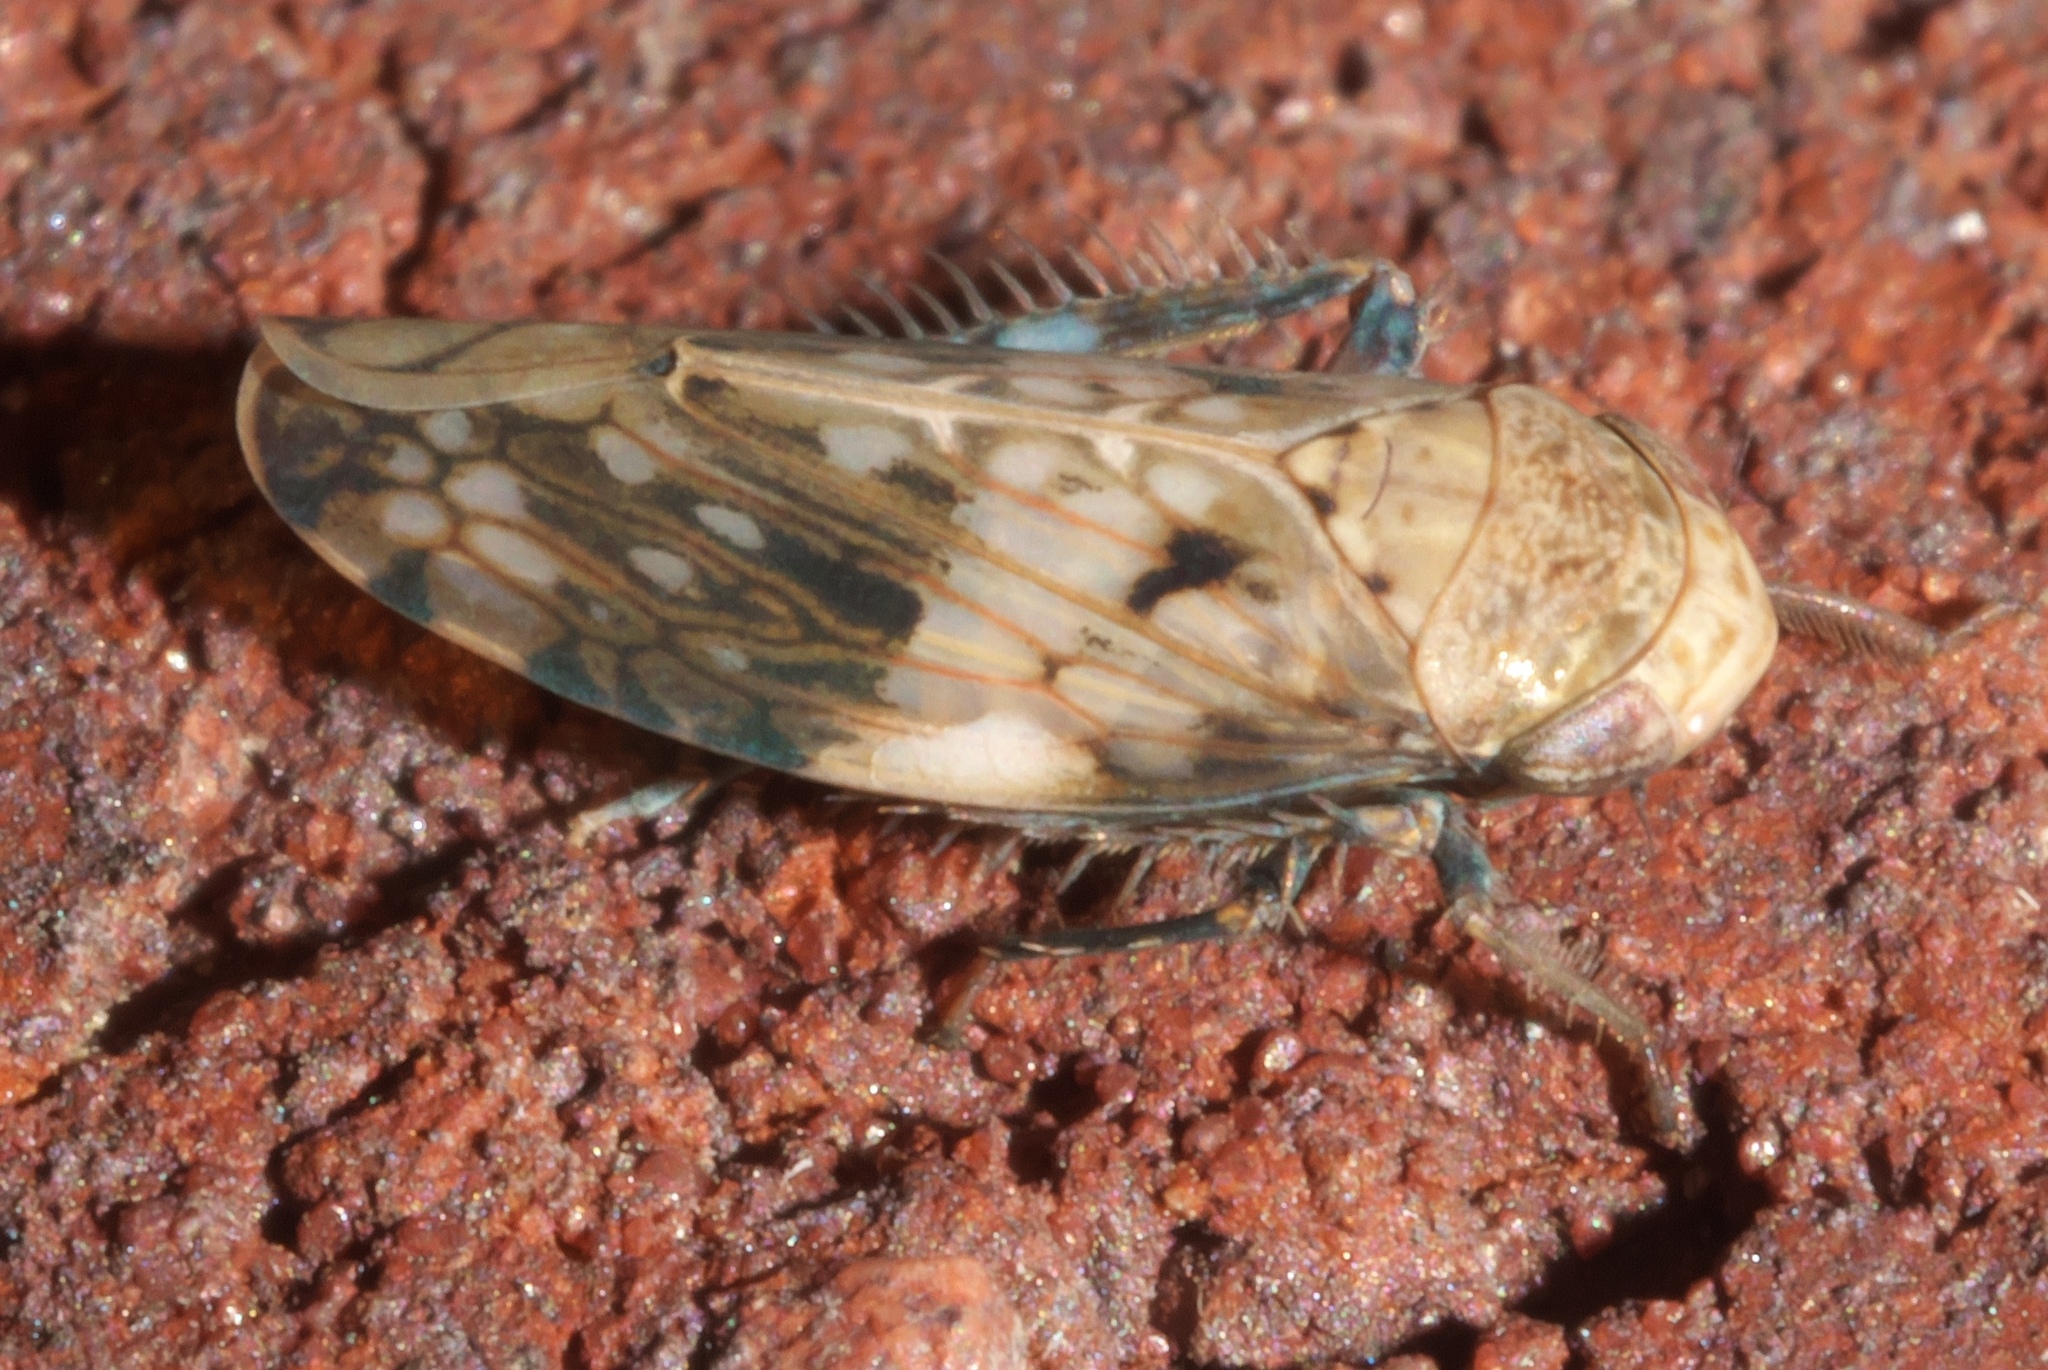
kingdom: Animalia
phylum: Arthropoda
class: Insecta
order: Hemiptera
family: Cicadellidae
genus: Menosoma
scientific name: Menosoma cinctum
